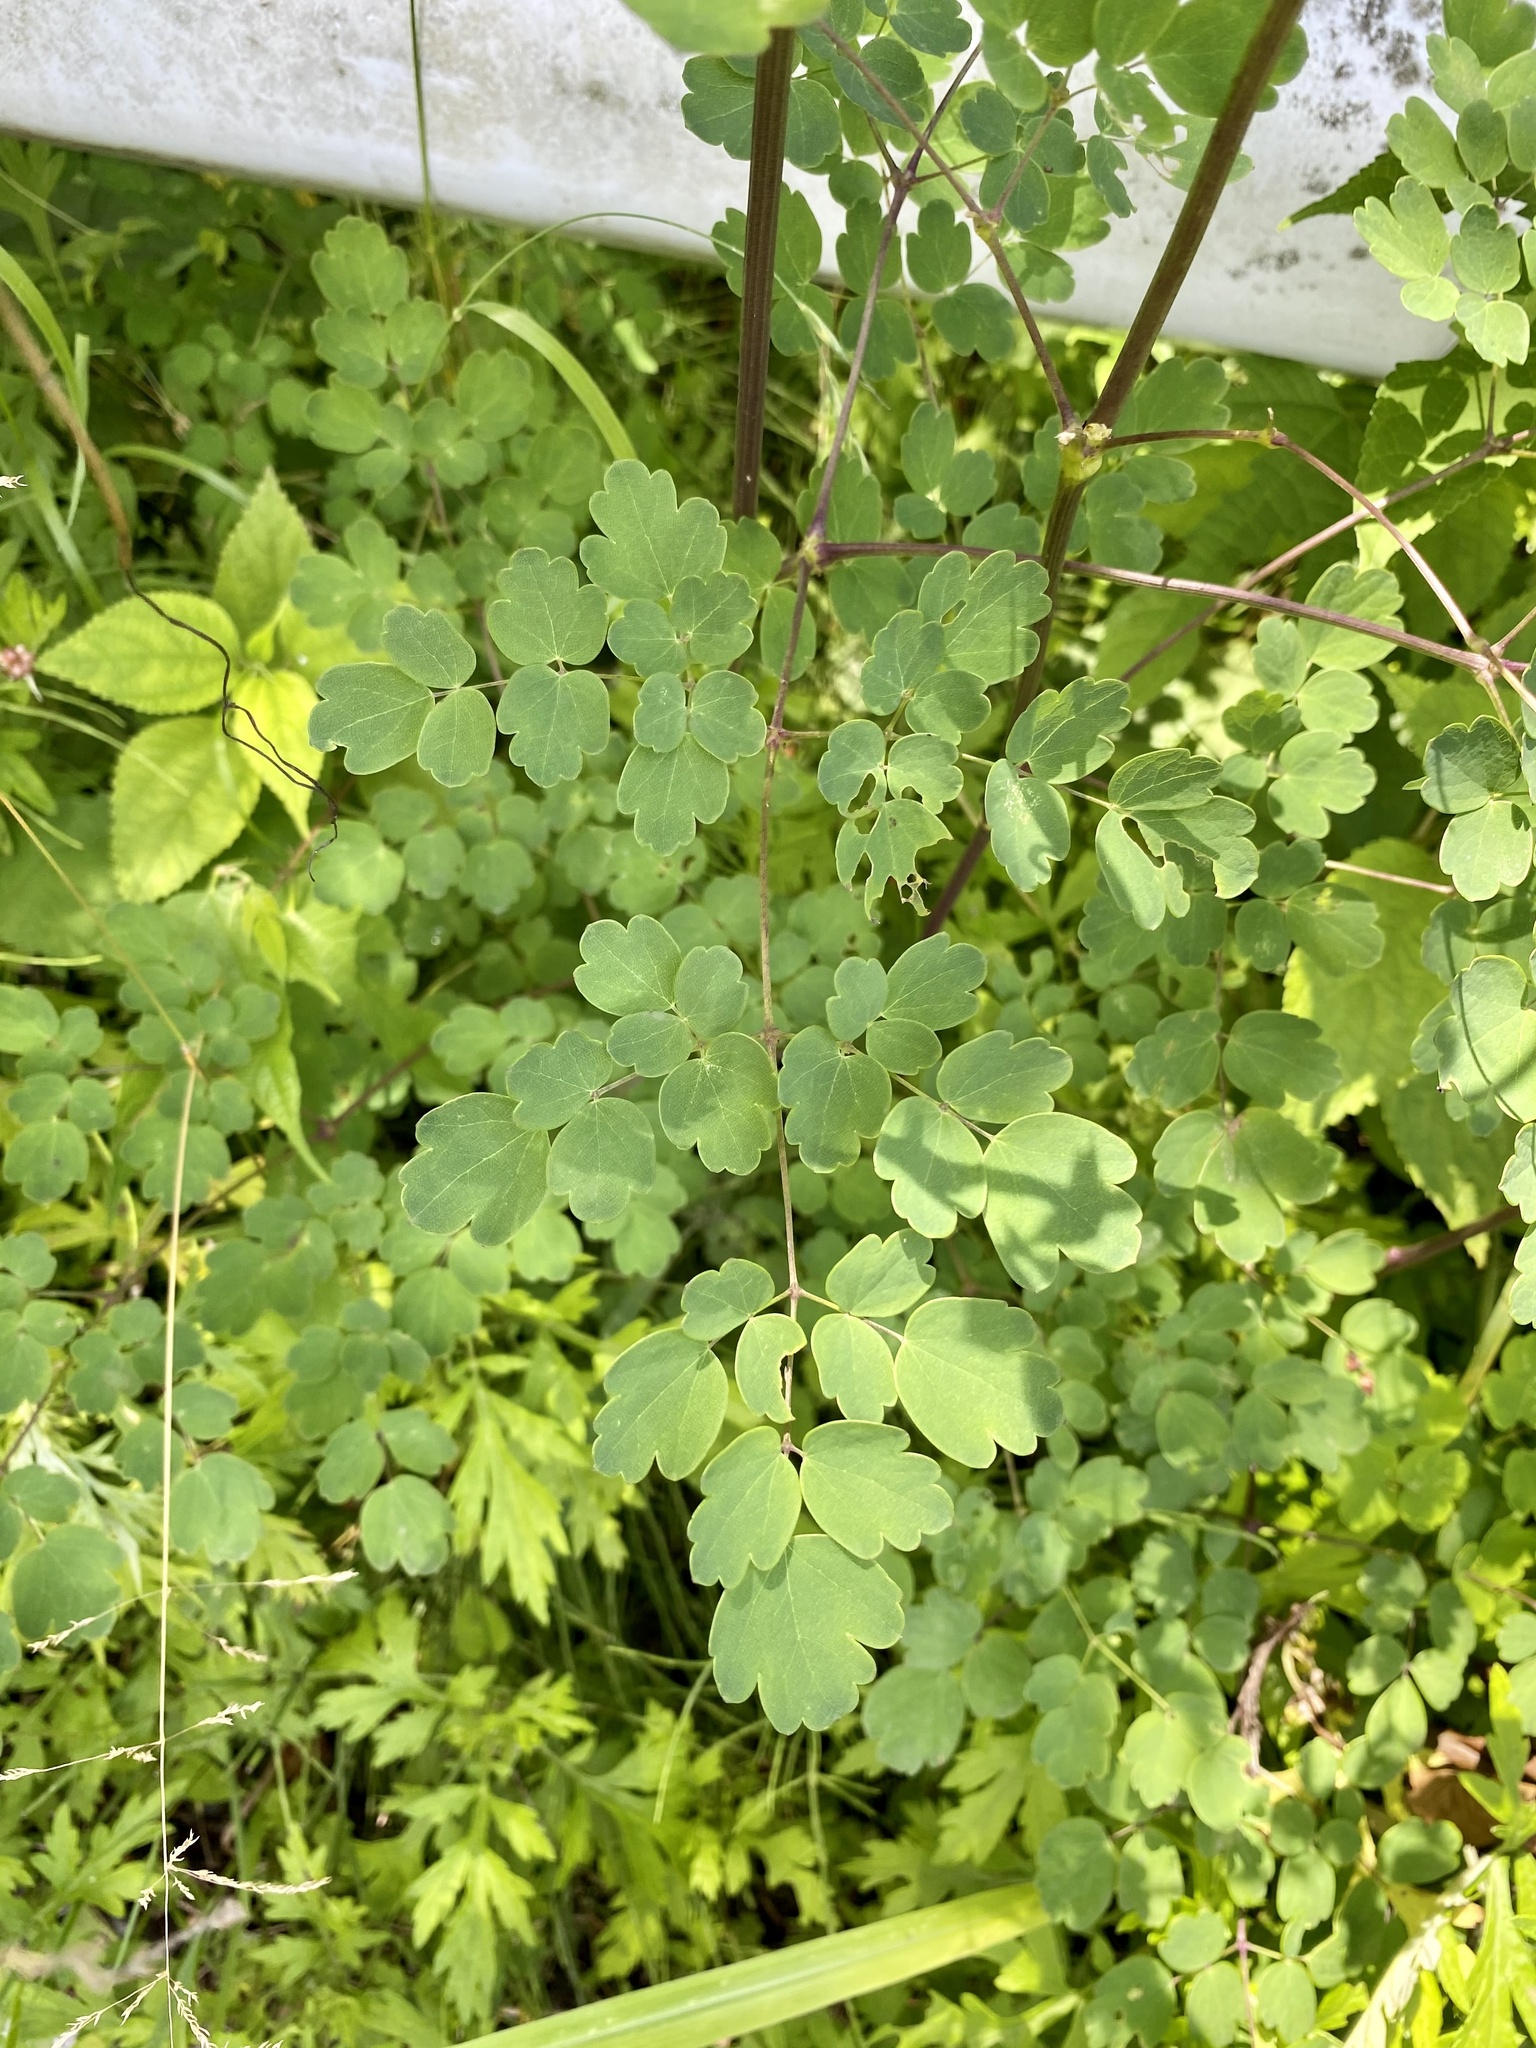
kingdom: Plantae
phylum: Tracheophyta
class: Magnoliopsida
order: Ranunculales
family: Ranunculaceae
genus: Thalictrum
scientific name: Thalictrum aquilegiifolium
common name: French meadow-rue
